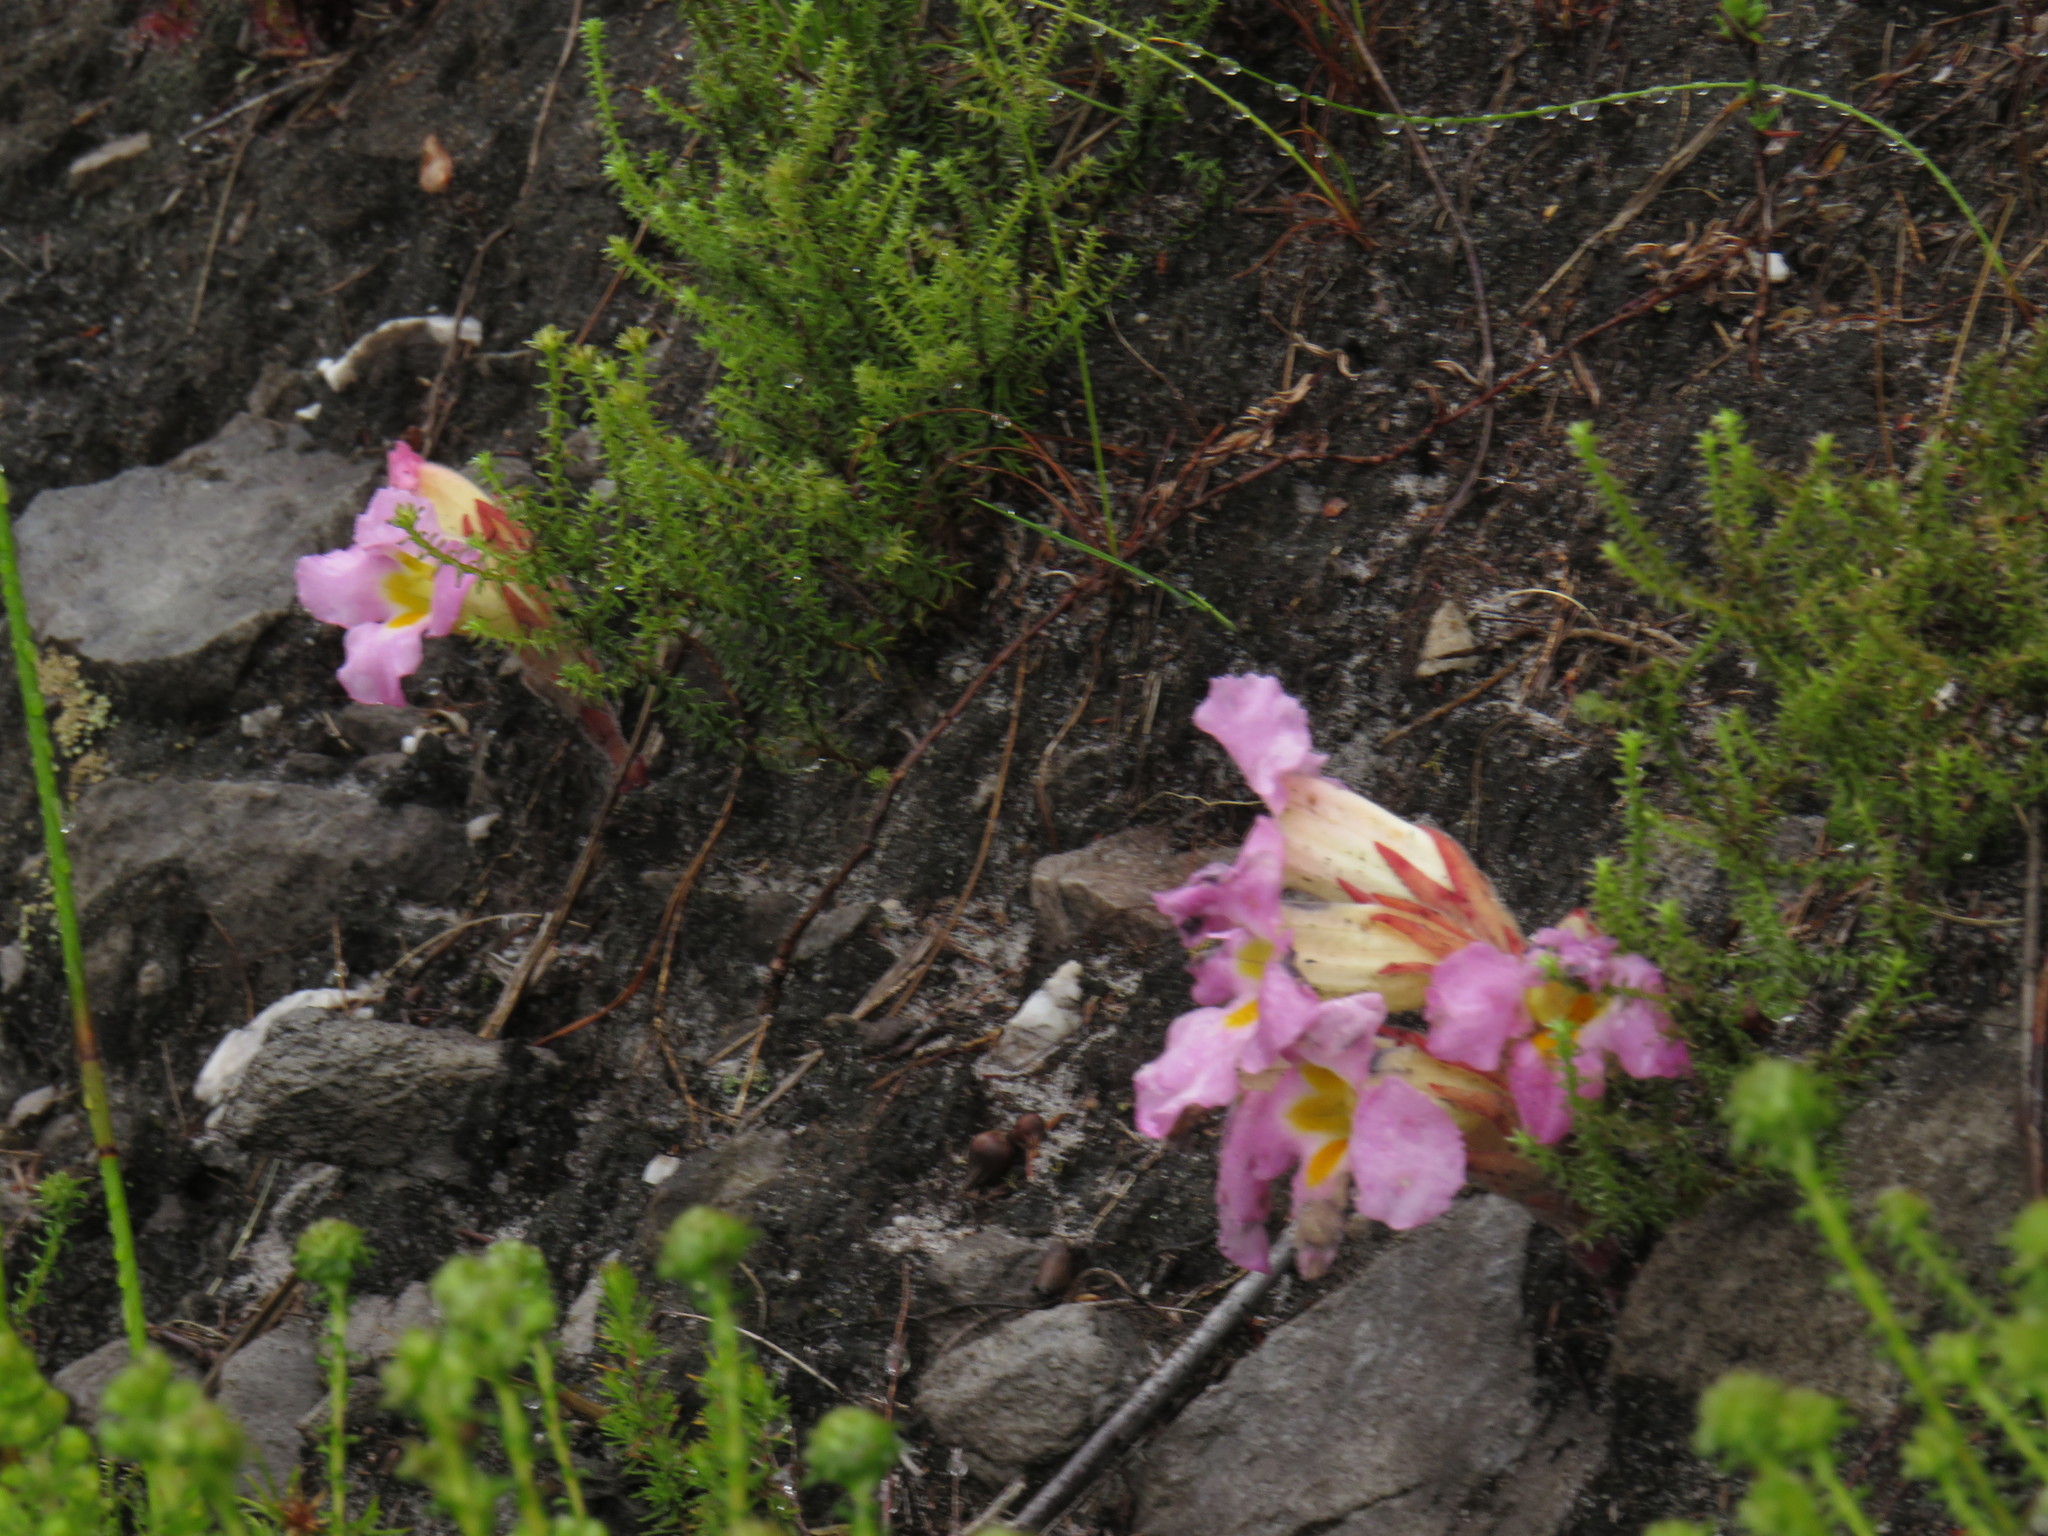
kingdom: Plantae
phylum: Tracheophyta
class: Magnoliopsida
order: Lamiales
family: Orobanchaceae
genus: Harveya
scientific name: Harveya purpurea
